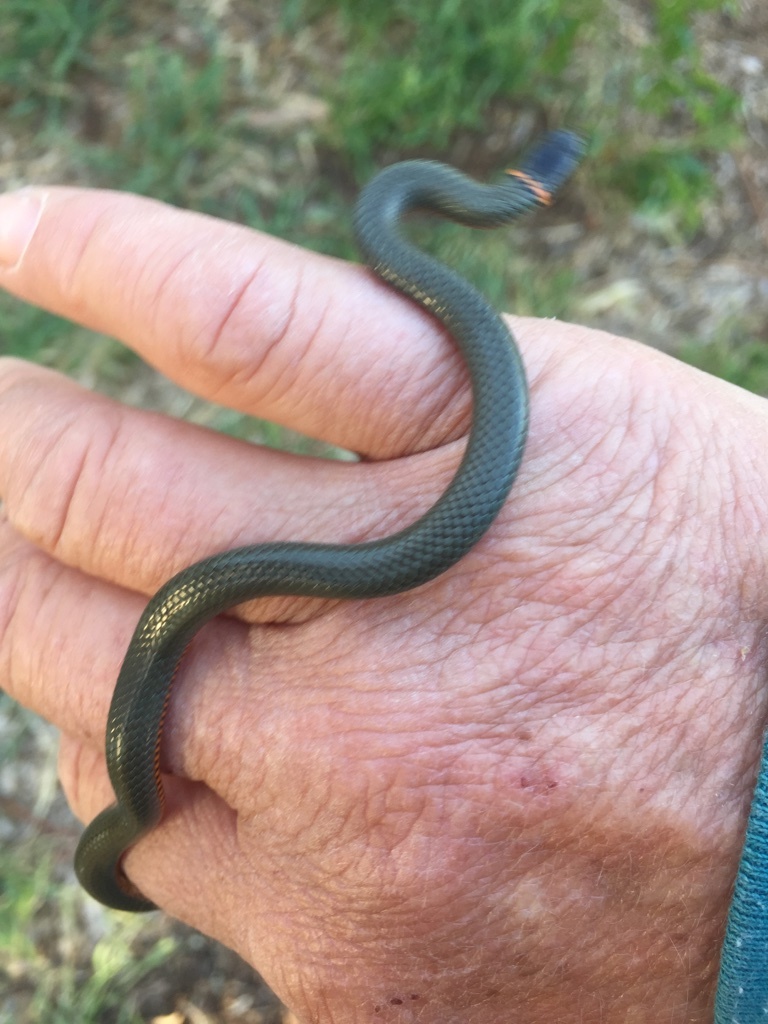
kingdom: Animalia
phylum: Chordata
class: Squamata
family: Colubridae
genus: Diadophis
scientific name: Diadophis punctatus
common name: Ringneck snake
